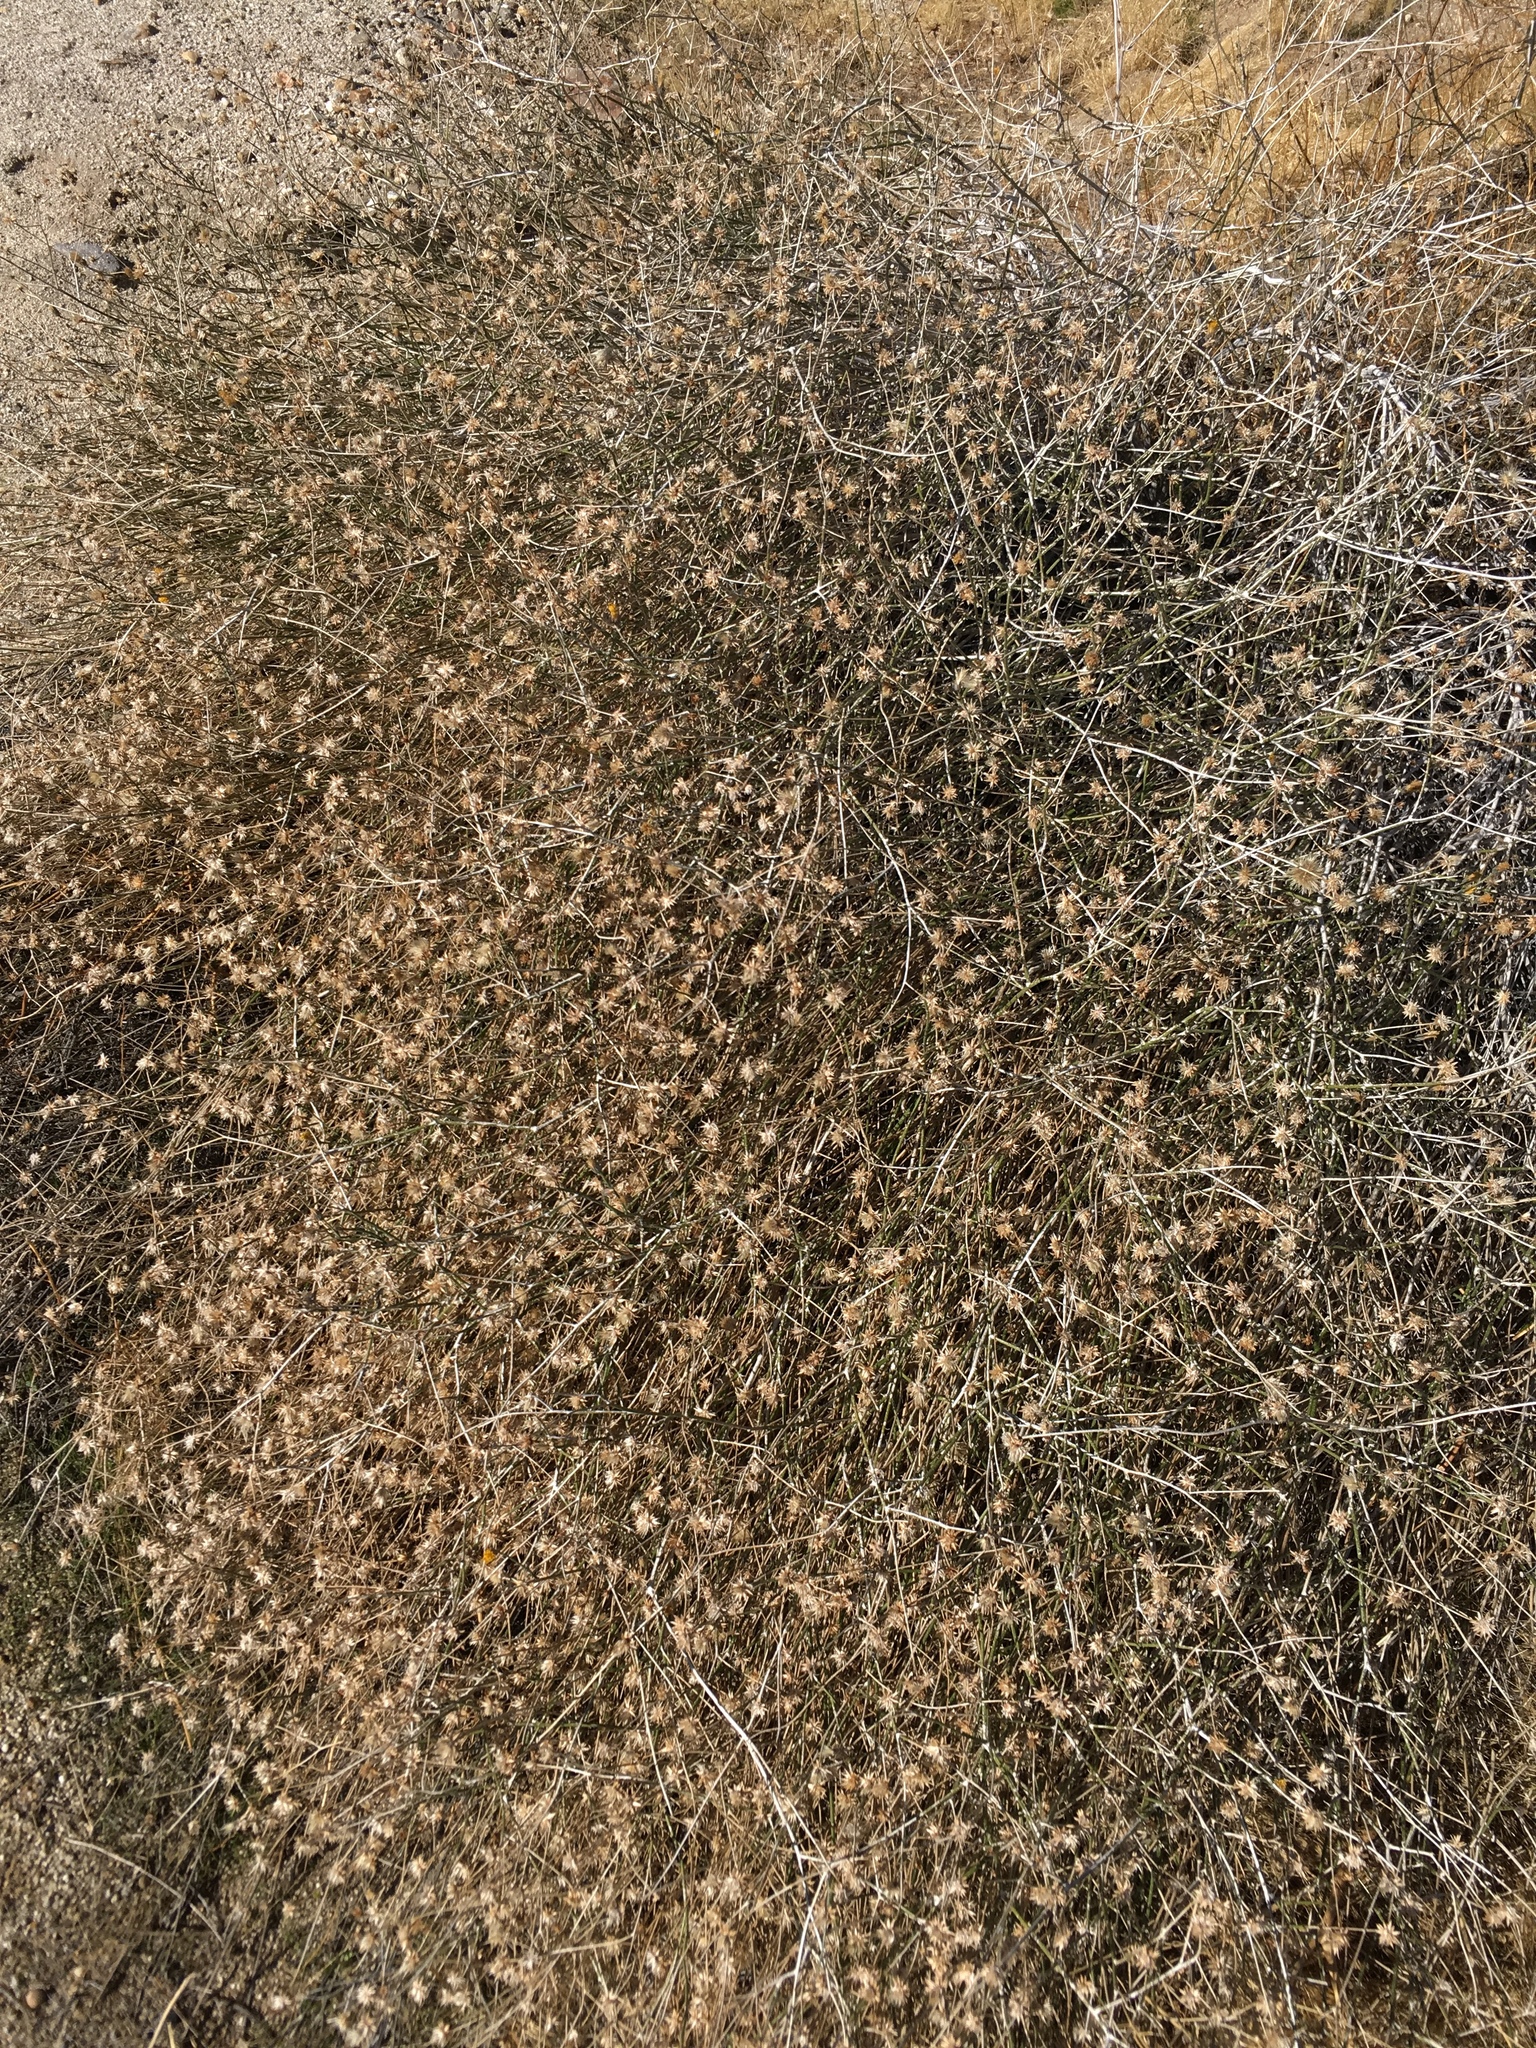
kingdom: Plantae
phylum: Tracheophyta
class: Magnoliopsida
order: Asterales
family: Asteraceae
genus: Bebbia
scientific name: Bebbia juncea
